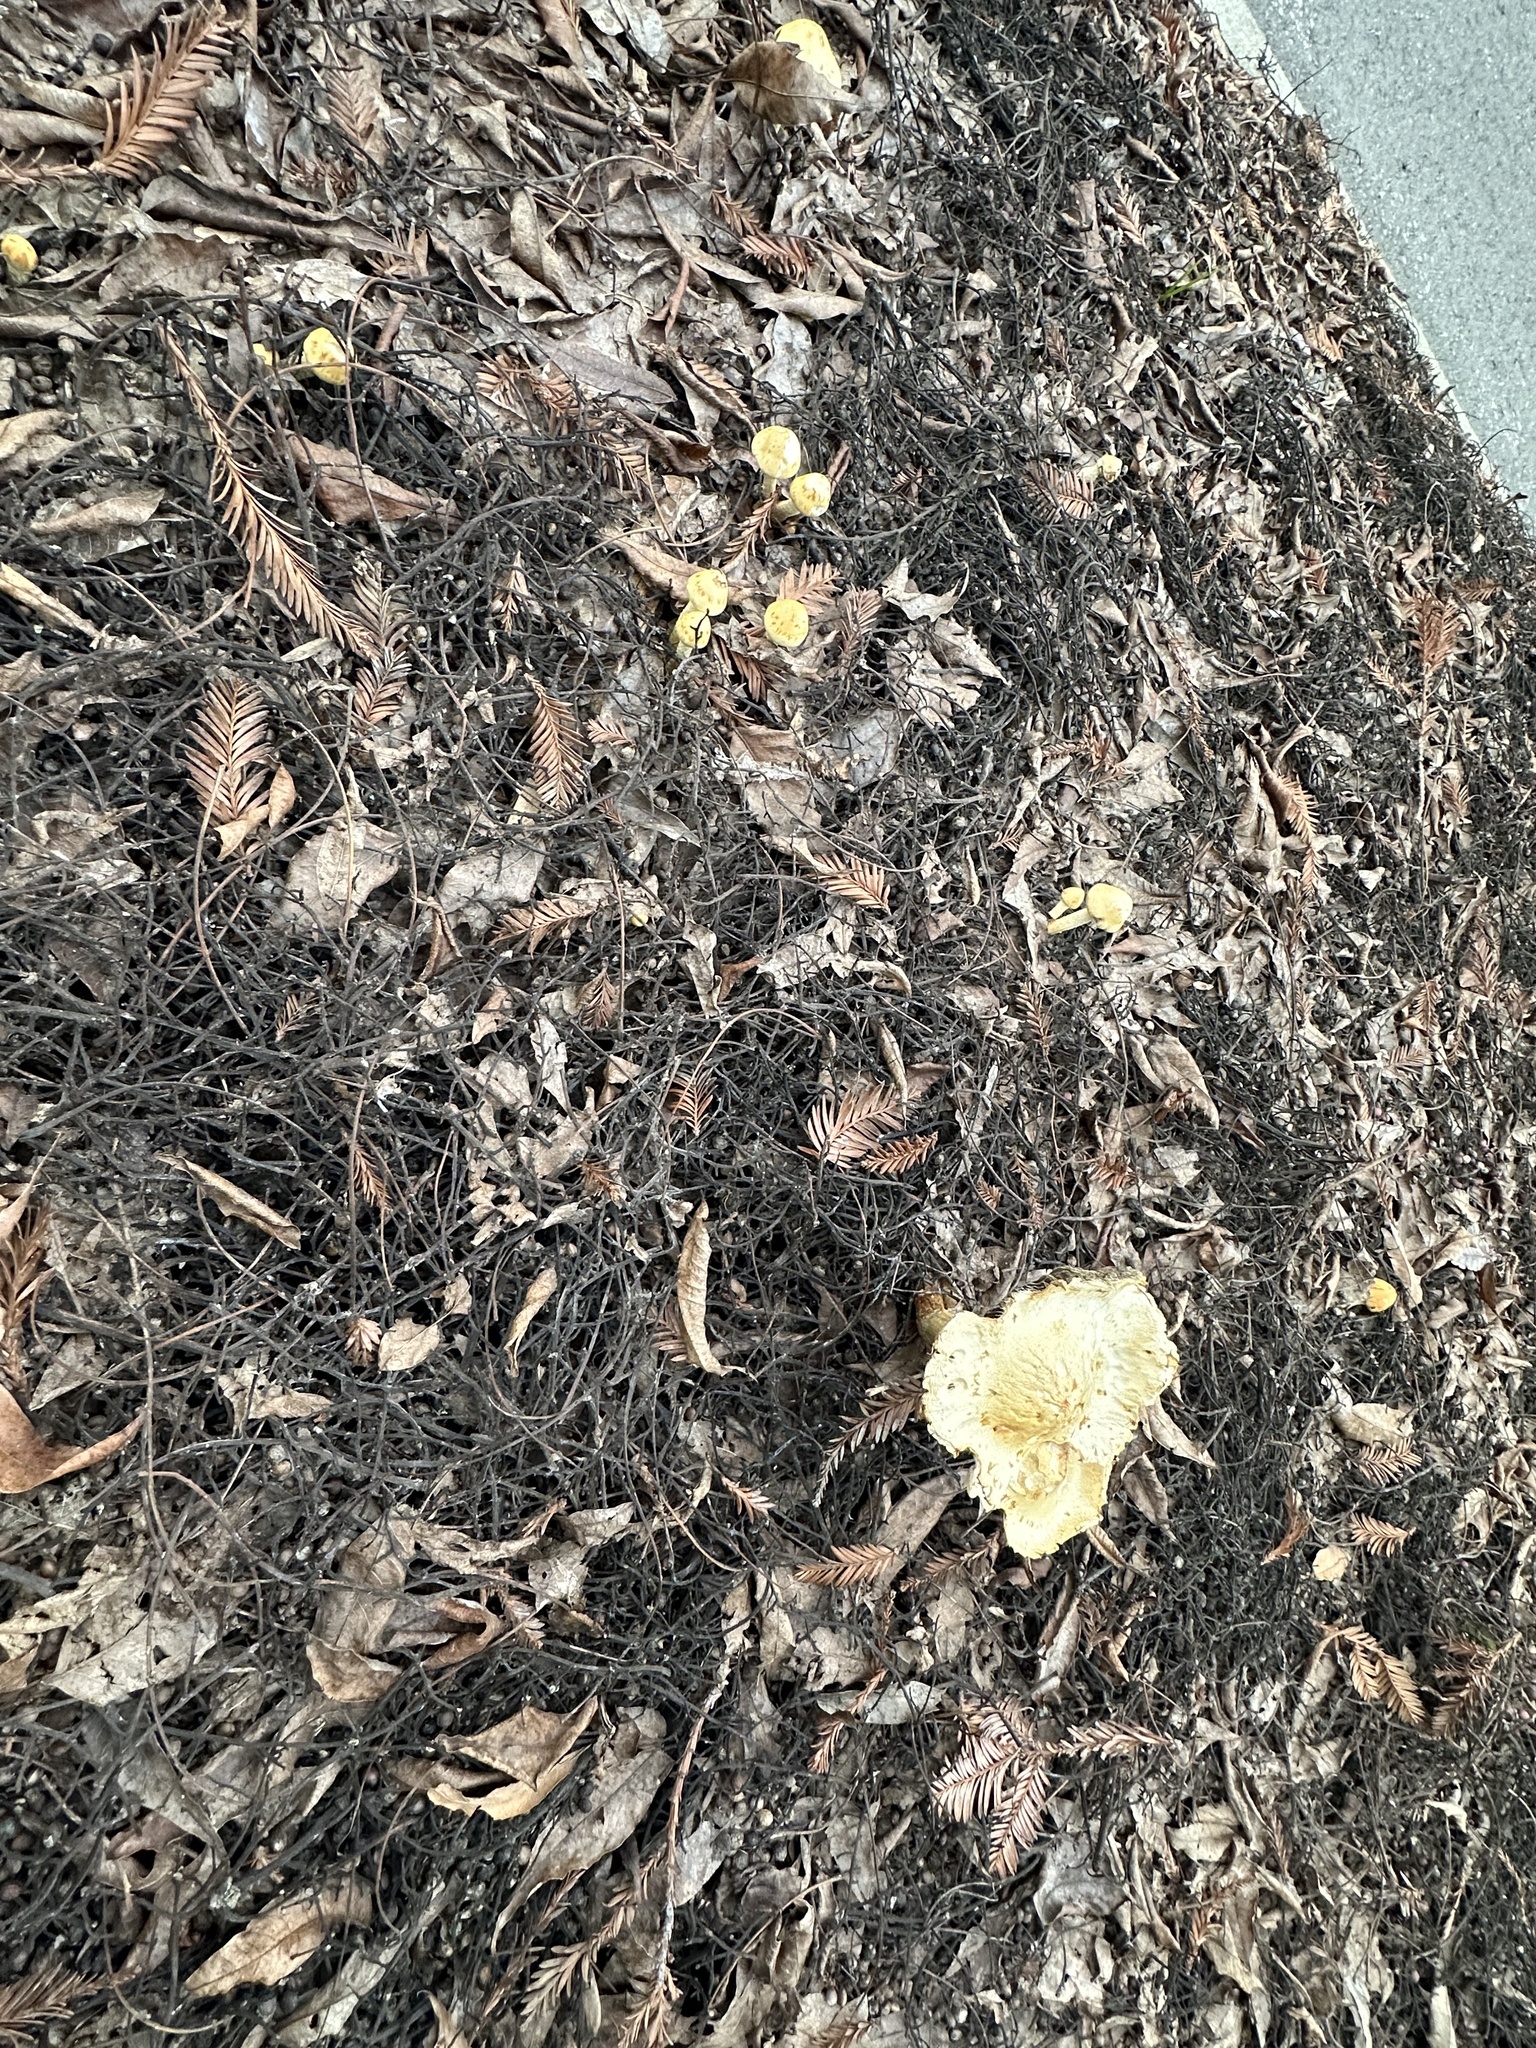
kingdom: Fungi
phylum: Basidiomycota
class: Agaricomycetes
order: Agaricales
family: Strophariaceae
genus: Leratiomyces
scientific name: Leratiomyces percevalii
